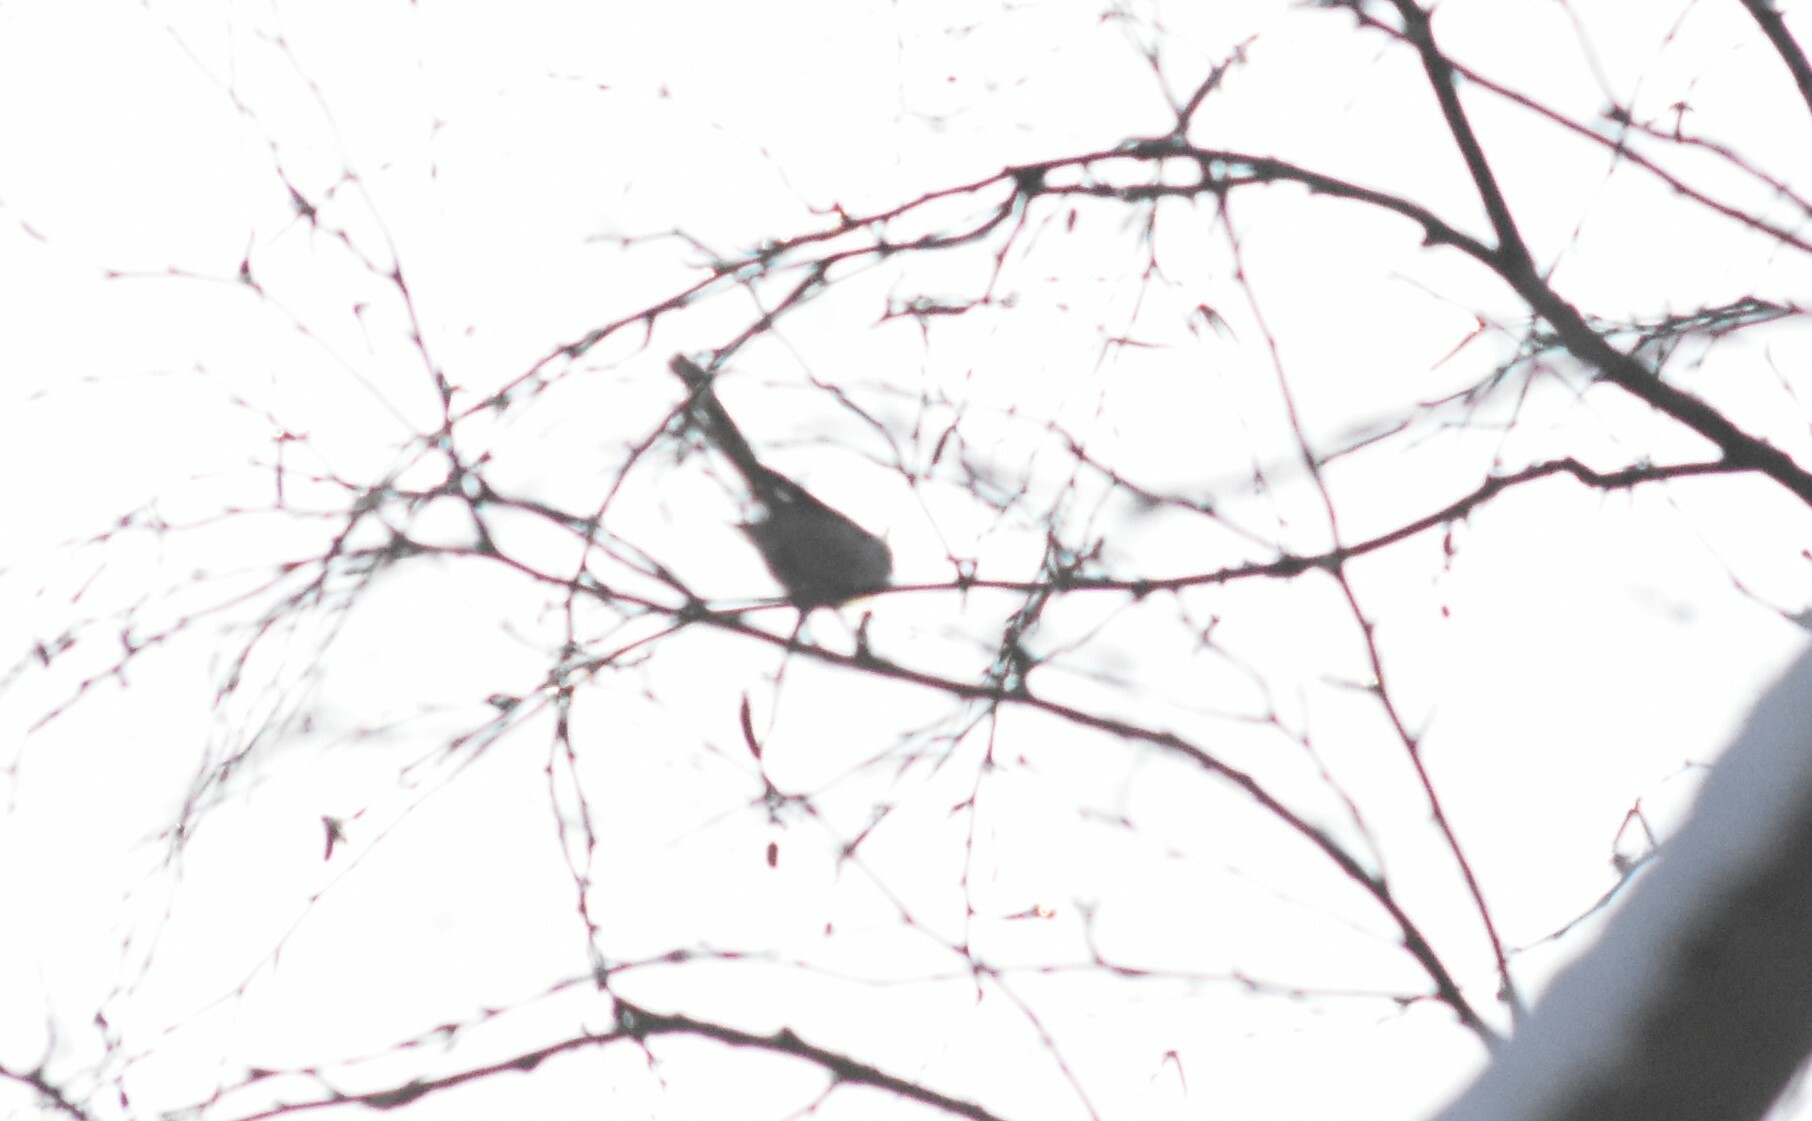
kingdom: Animalia
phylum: Chordata
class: Aves
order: Passeriformes
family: Aegithalidae
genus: Aegithalos
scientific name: Aegithalos caudatus
